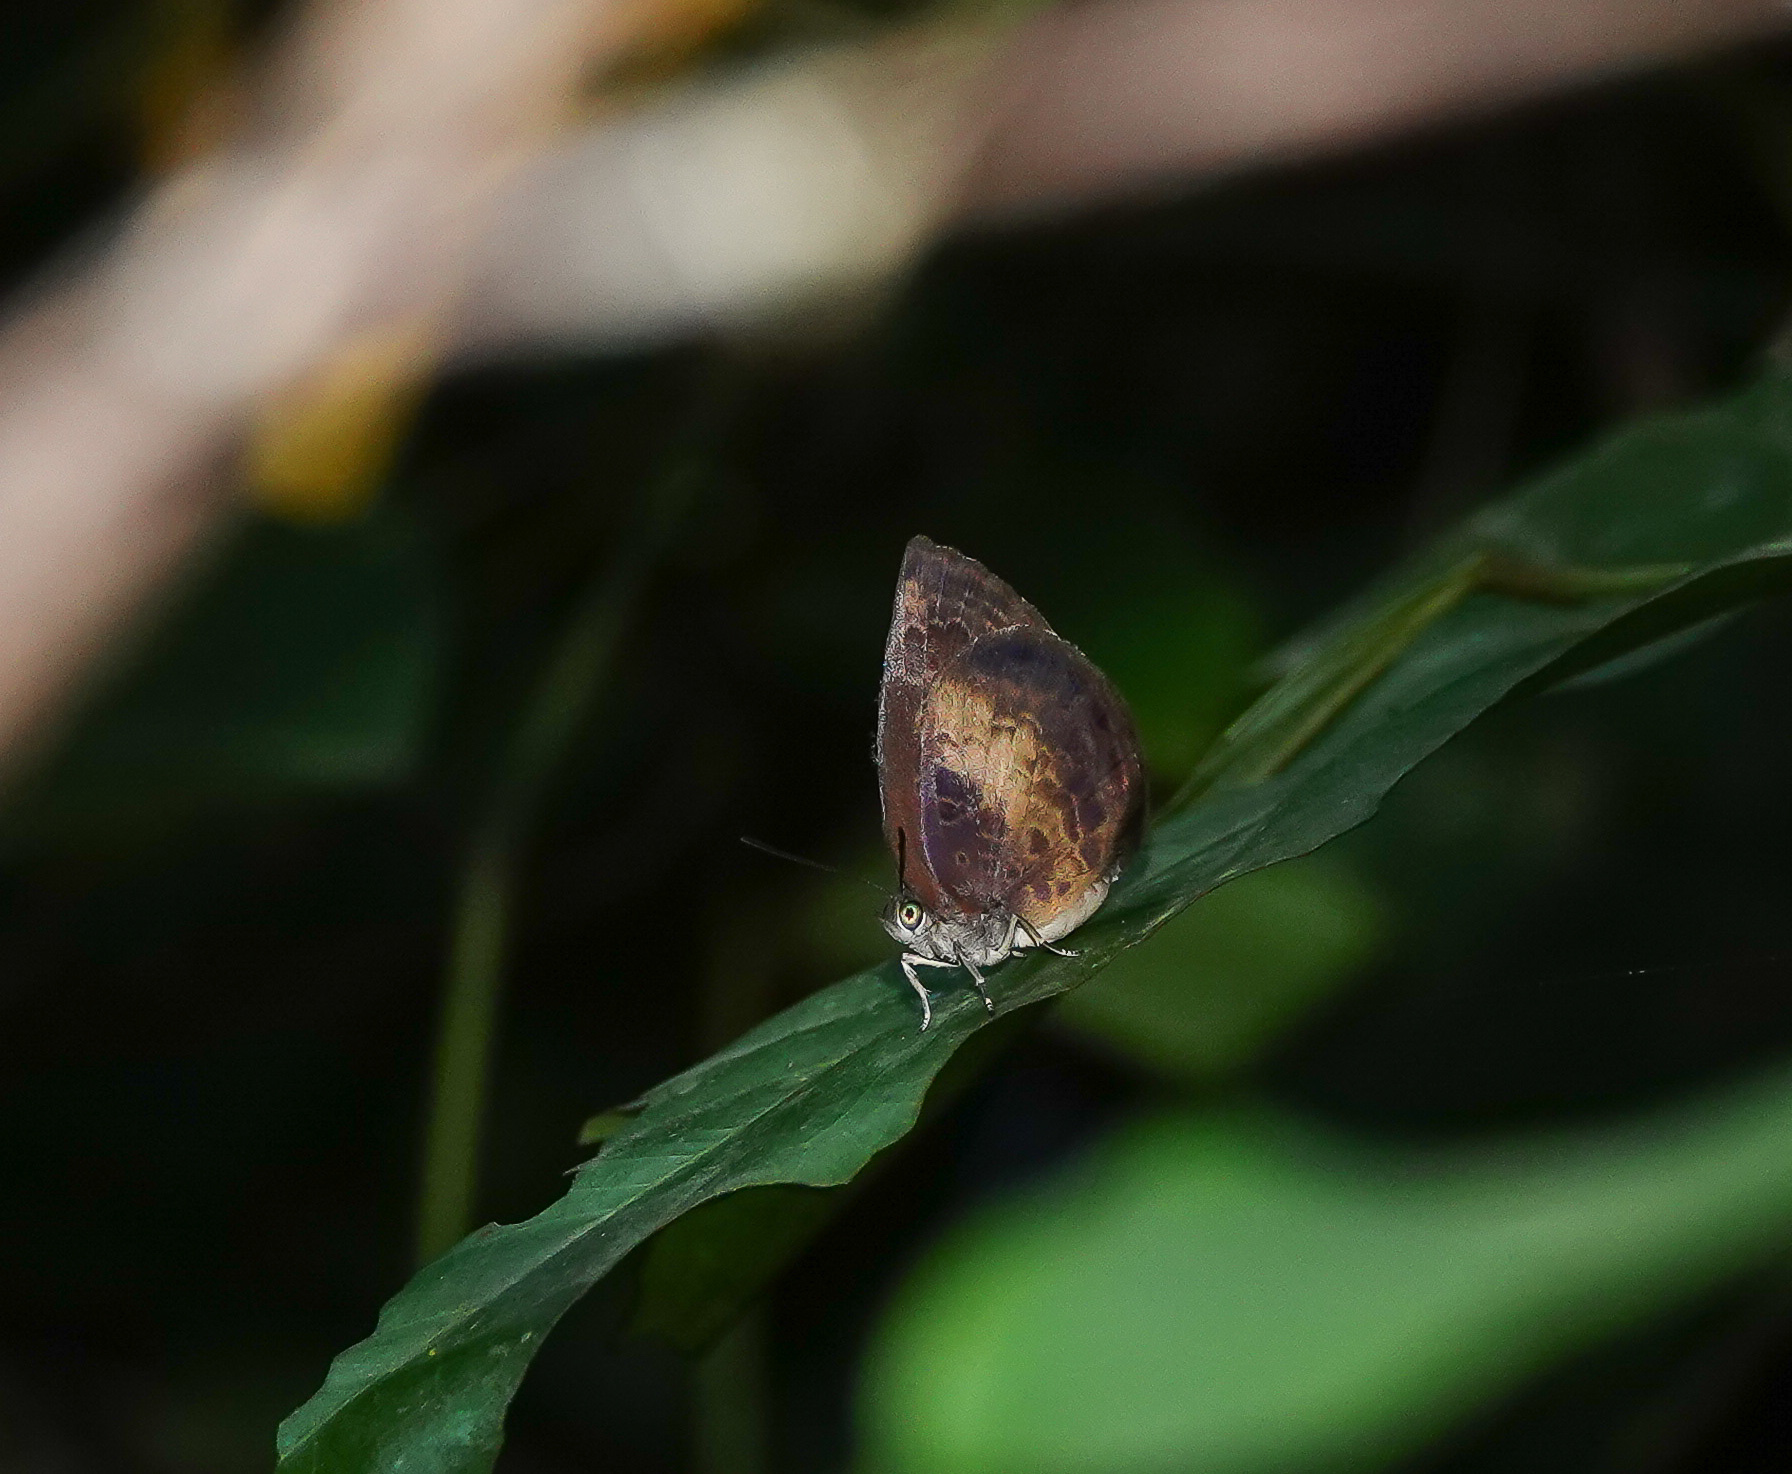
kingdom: Animalia
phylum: Arthropoda
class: Insecta
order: Lepidoptera
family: Lycaenidae
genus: Arhopala
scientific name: Arhopala perimuta
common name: Yellowdisc oakblue
